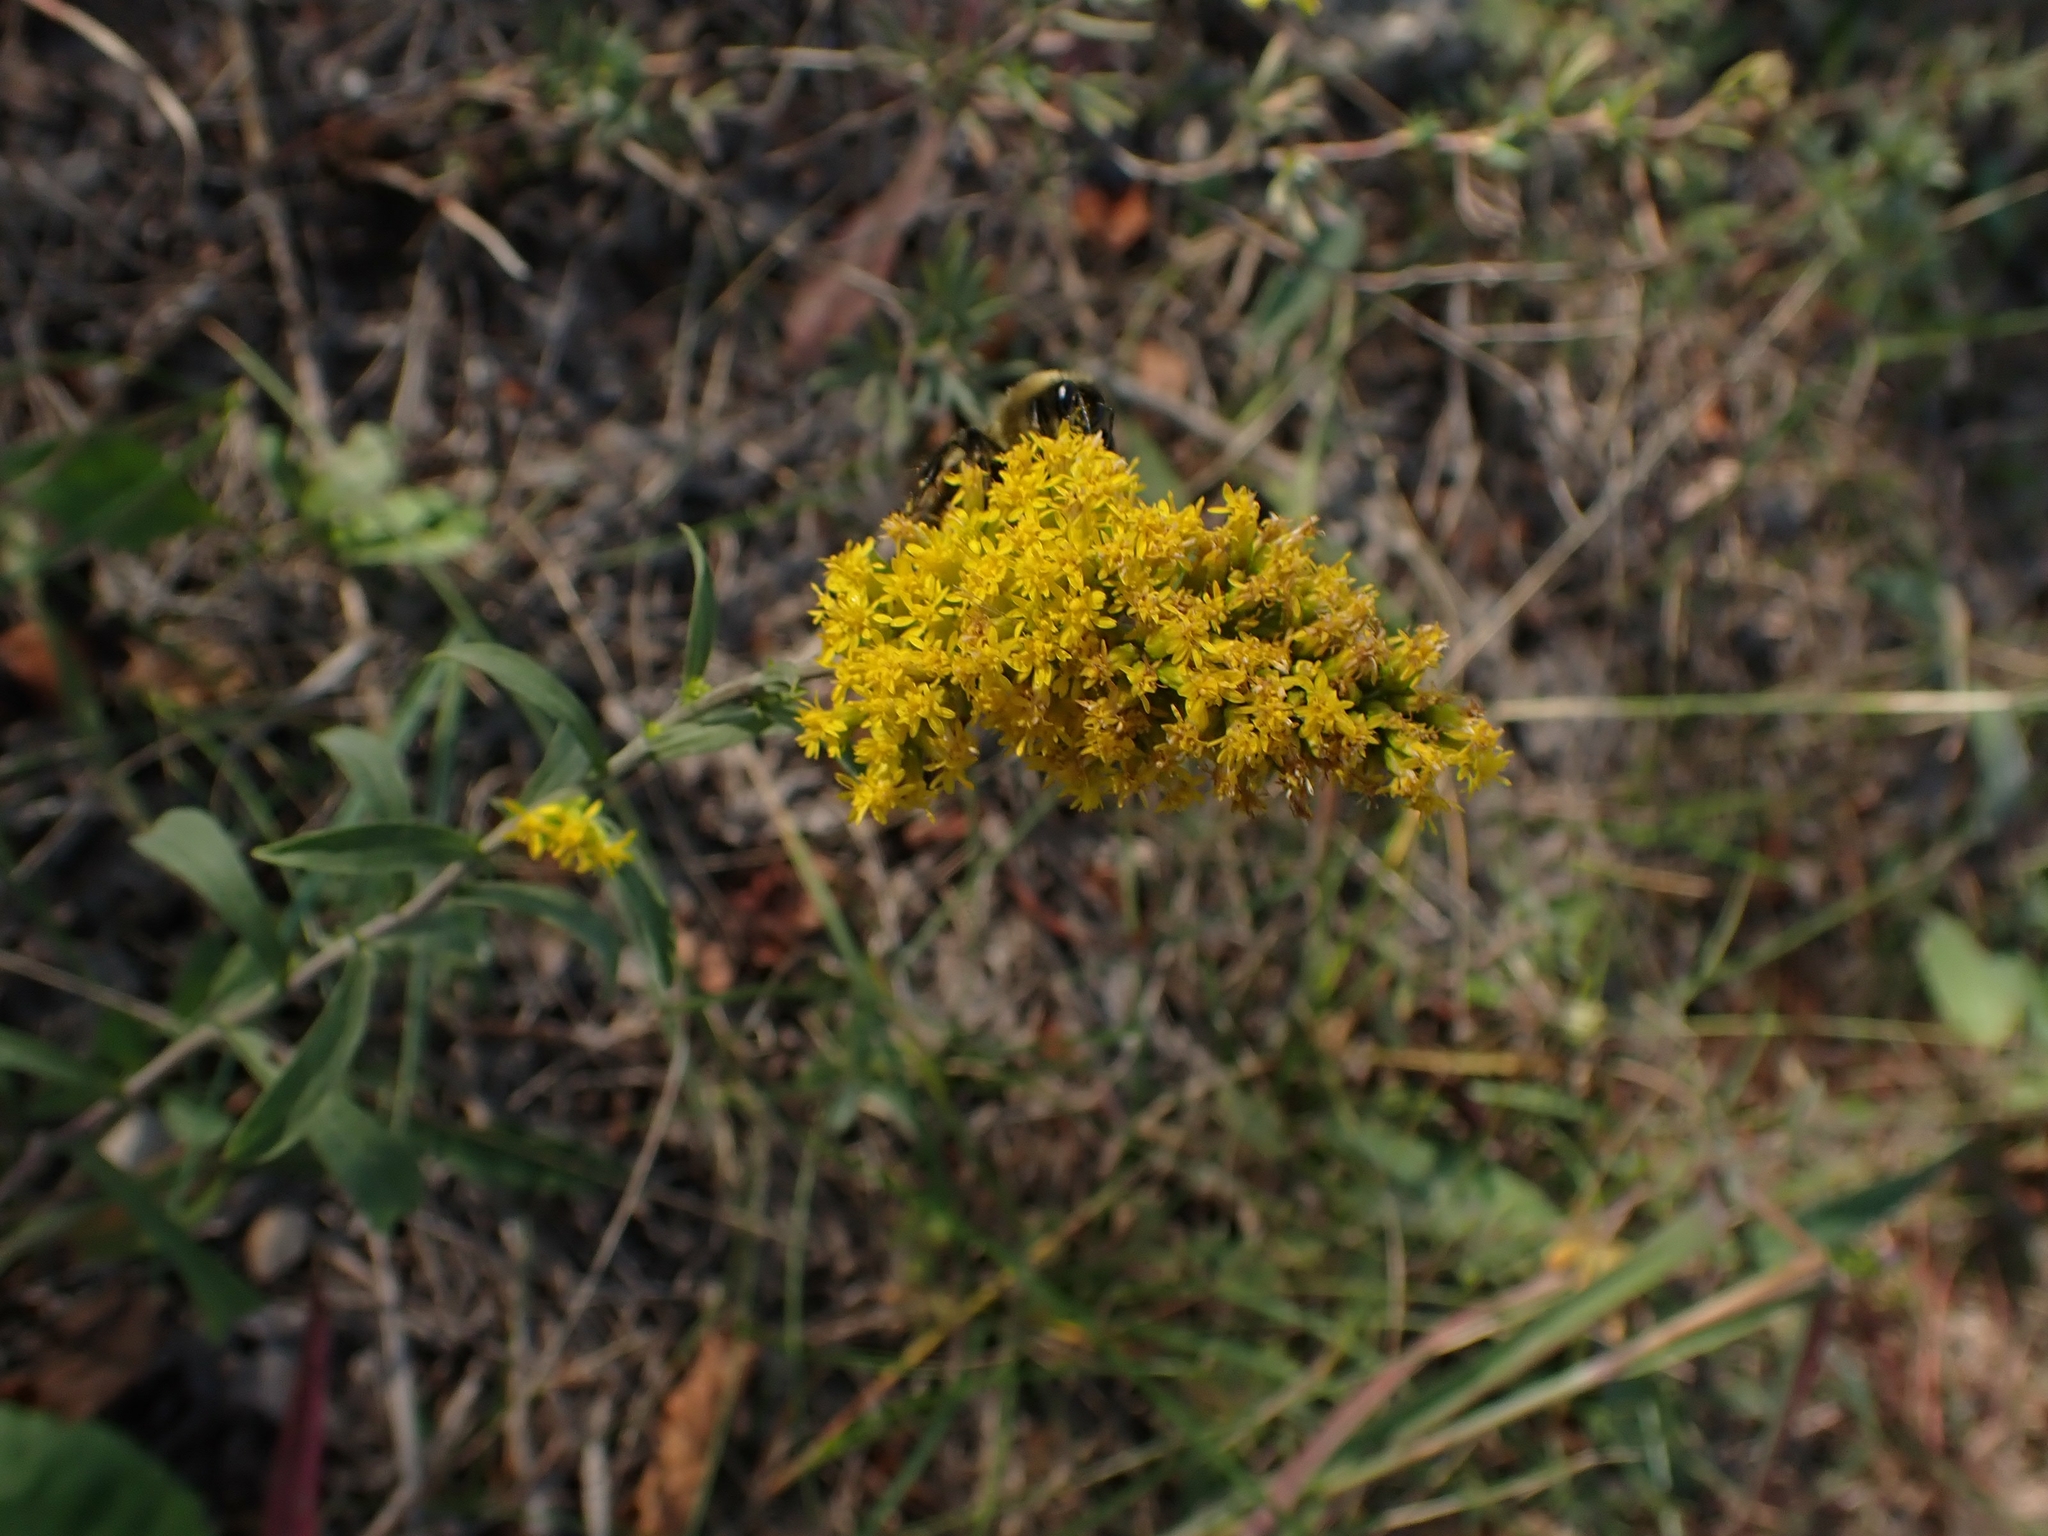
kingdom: Plantae
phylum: Tracheophyta
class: Magnoliopsida
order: Asterales
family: Asteraceae
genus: Solidago
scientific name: Solidago nemoralis
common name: Grey goldenrod
